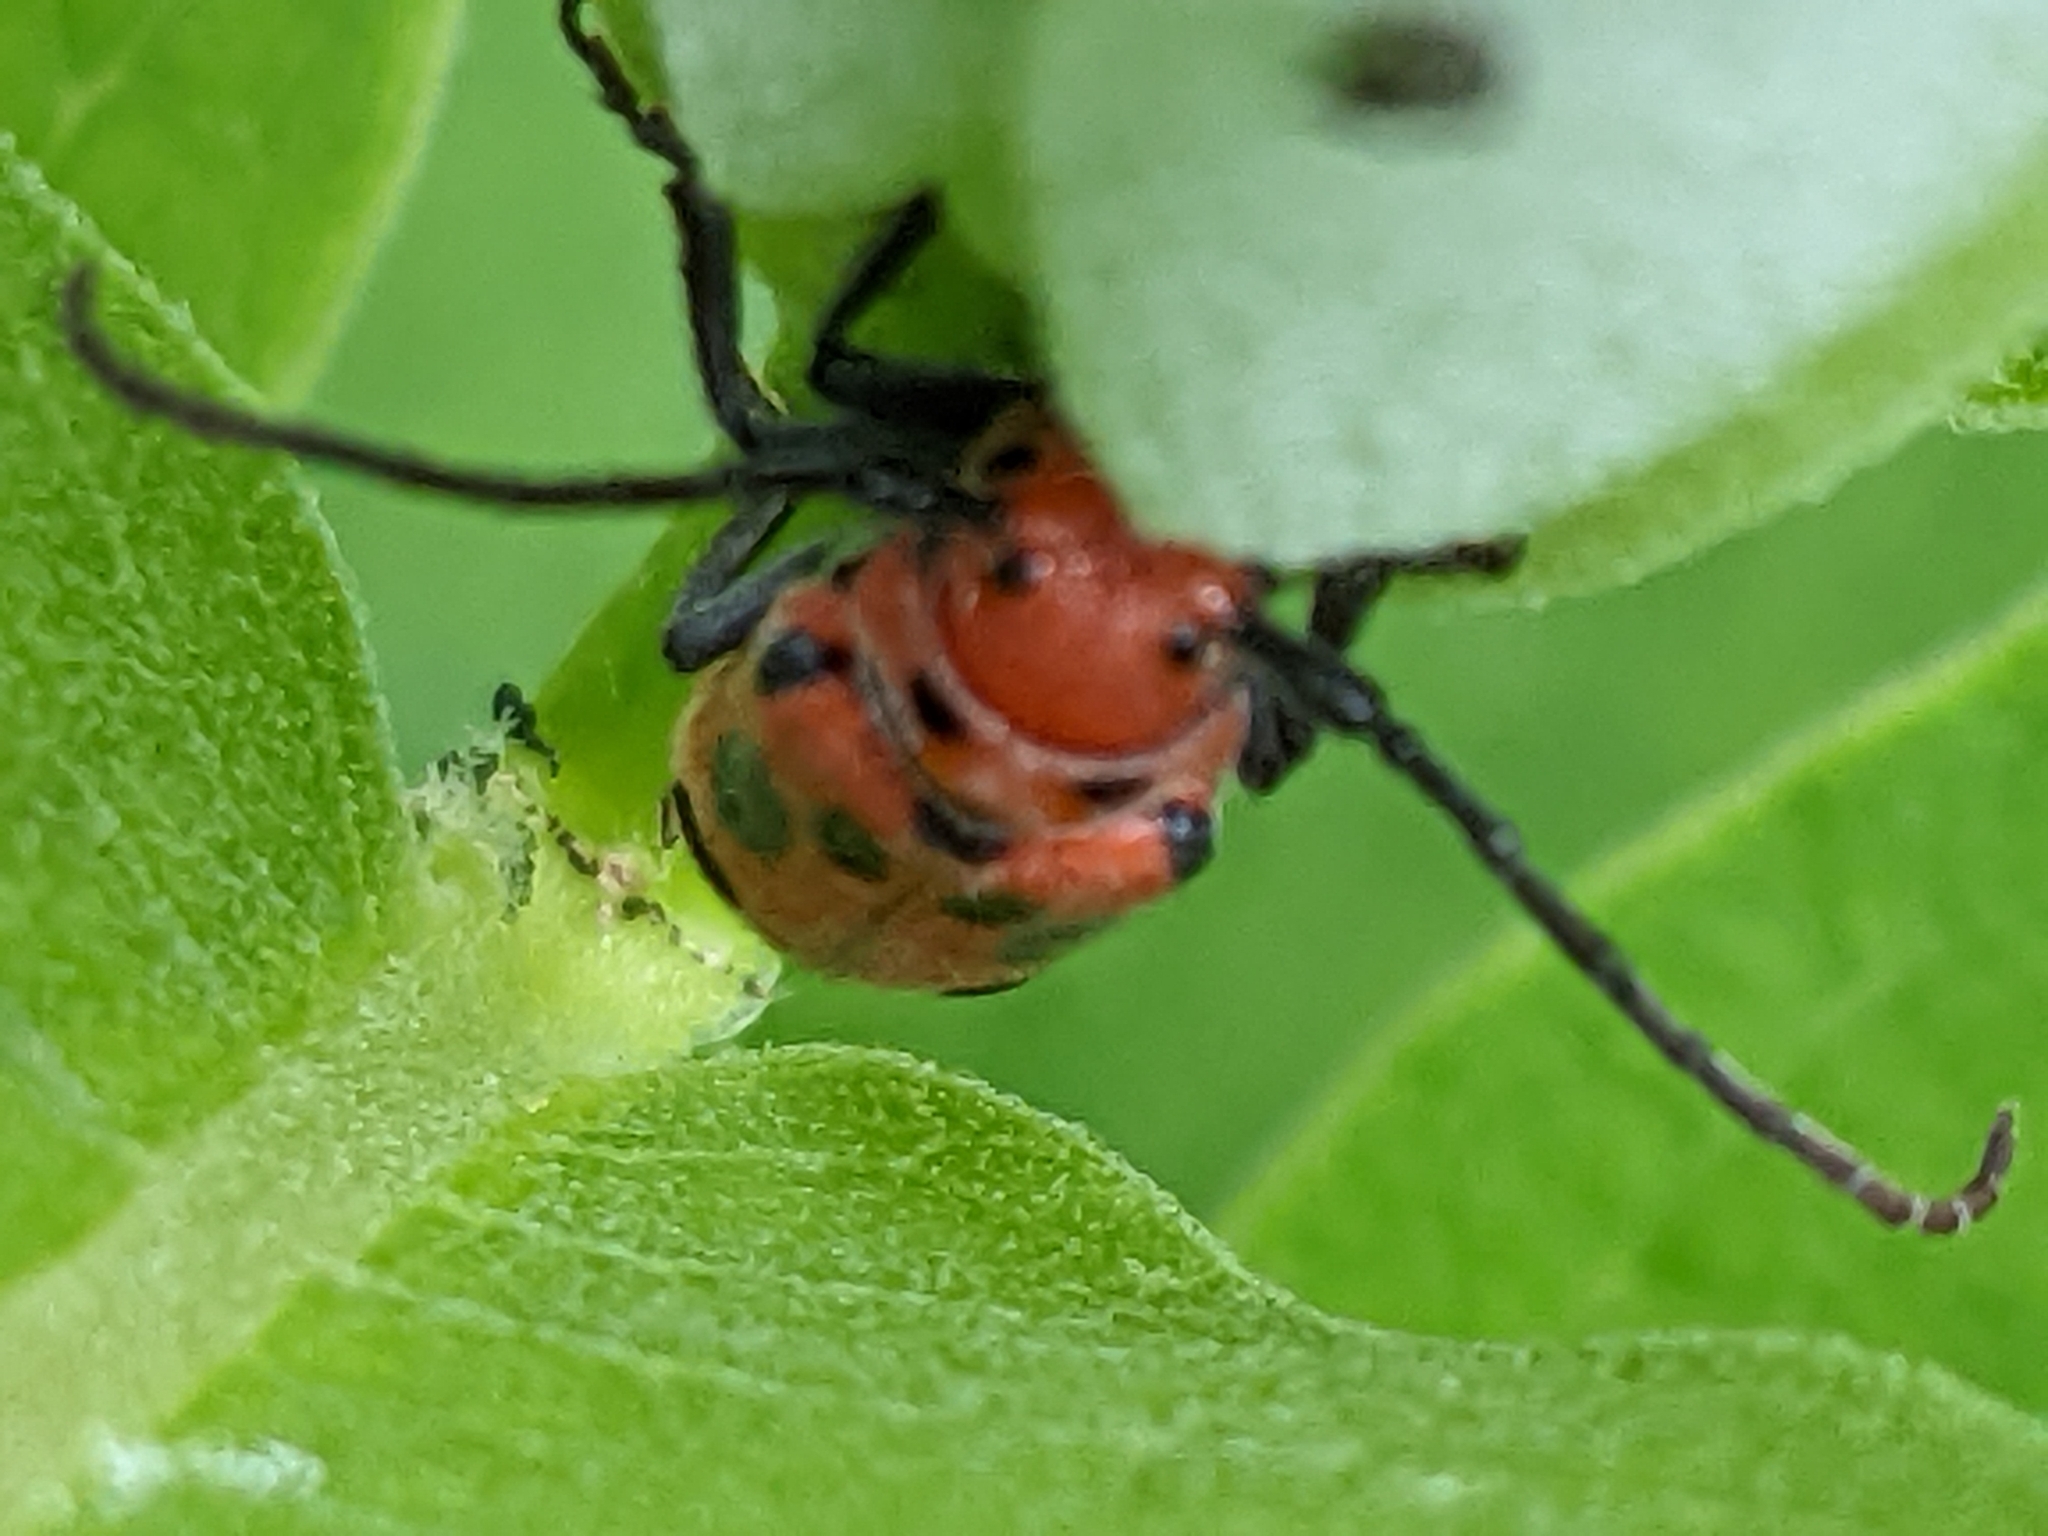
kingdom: Animalia
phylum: Arthropoda
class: Insecta
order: Coleoptera
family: Cerambycidae
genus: Tetraopes
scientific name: Tetraopes tetrophthalmus
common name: Red milkweed beetle
